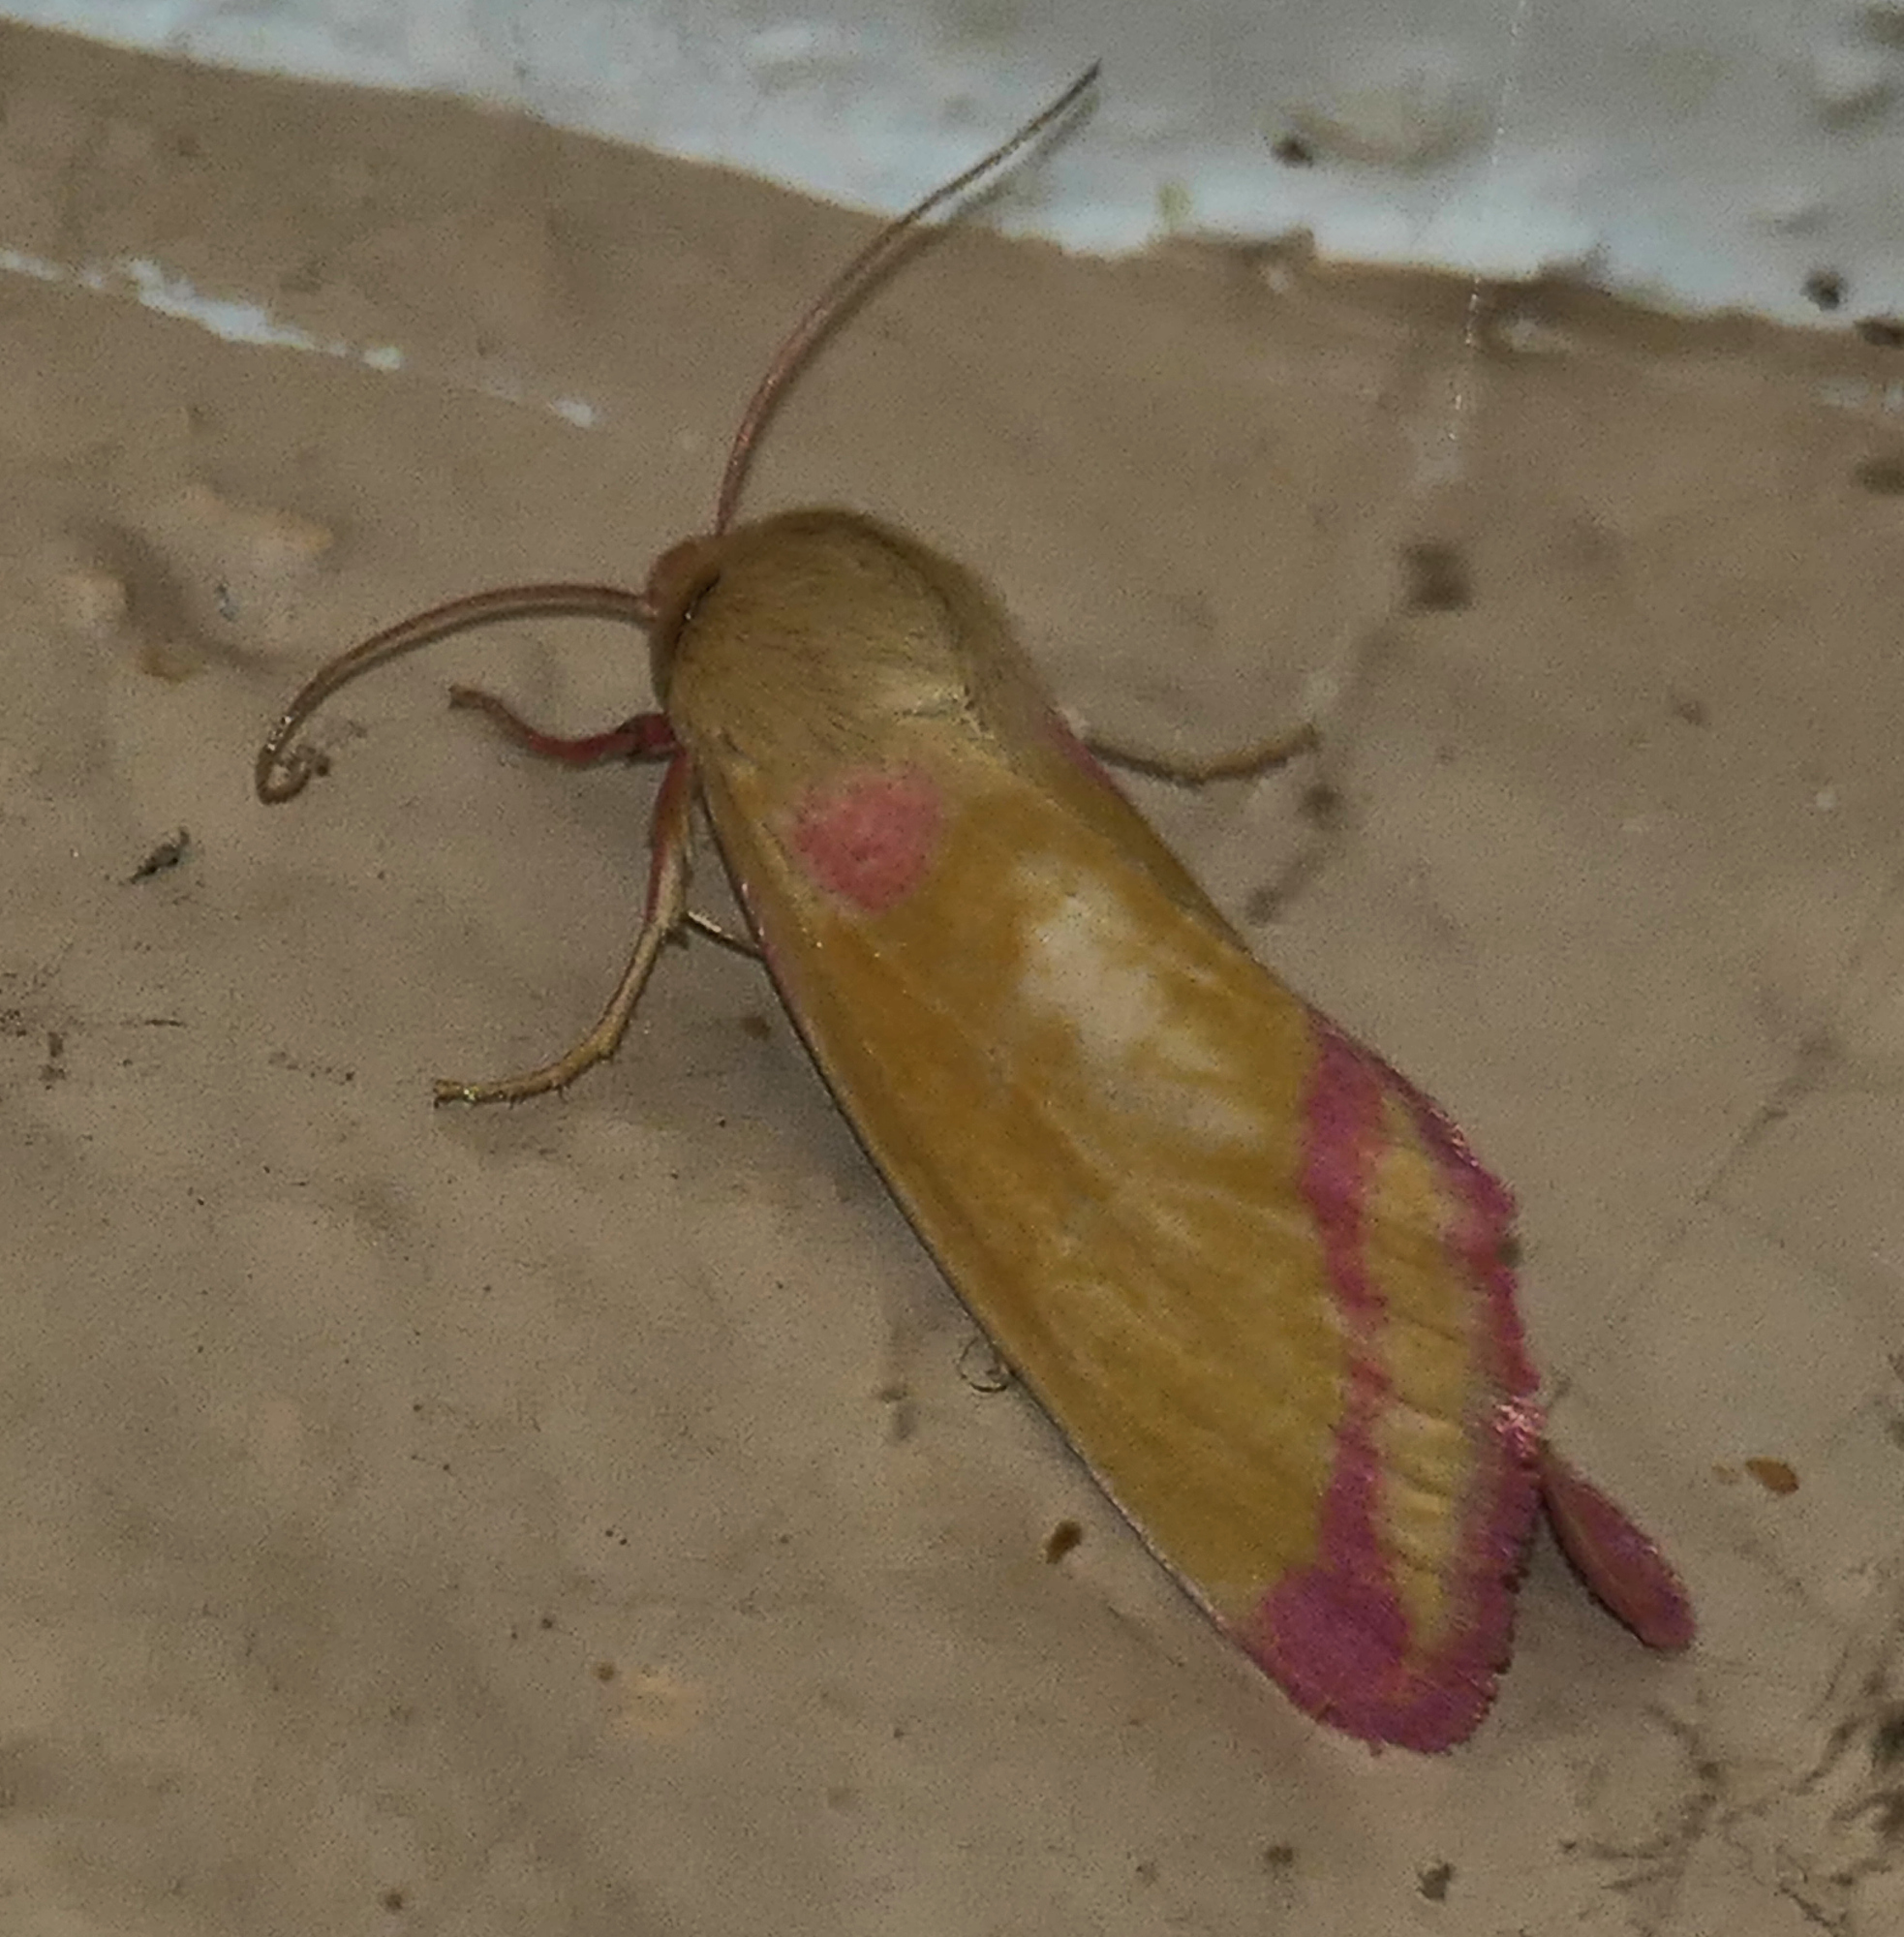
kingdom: Animalia
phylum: Arthropoda
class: Insecta
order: Lepidoptera
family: Noctuidae
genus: Heliocheilus
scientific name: Heliocheilus toralis
